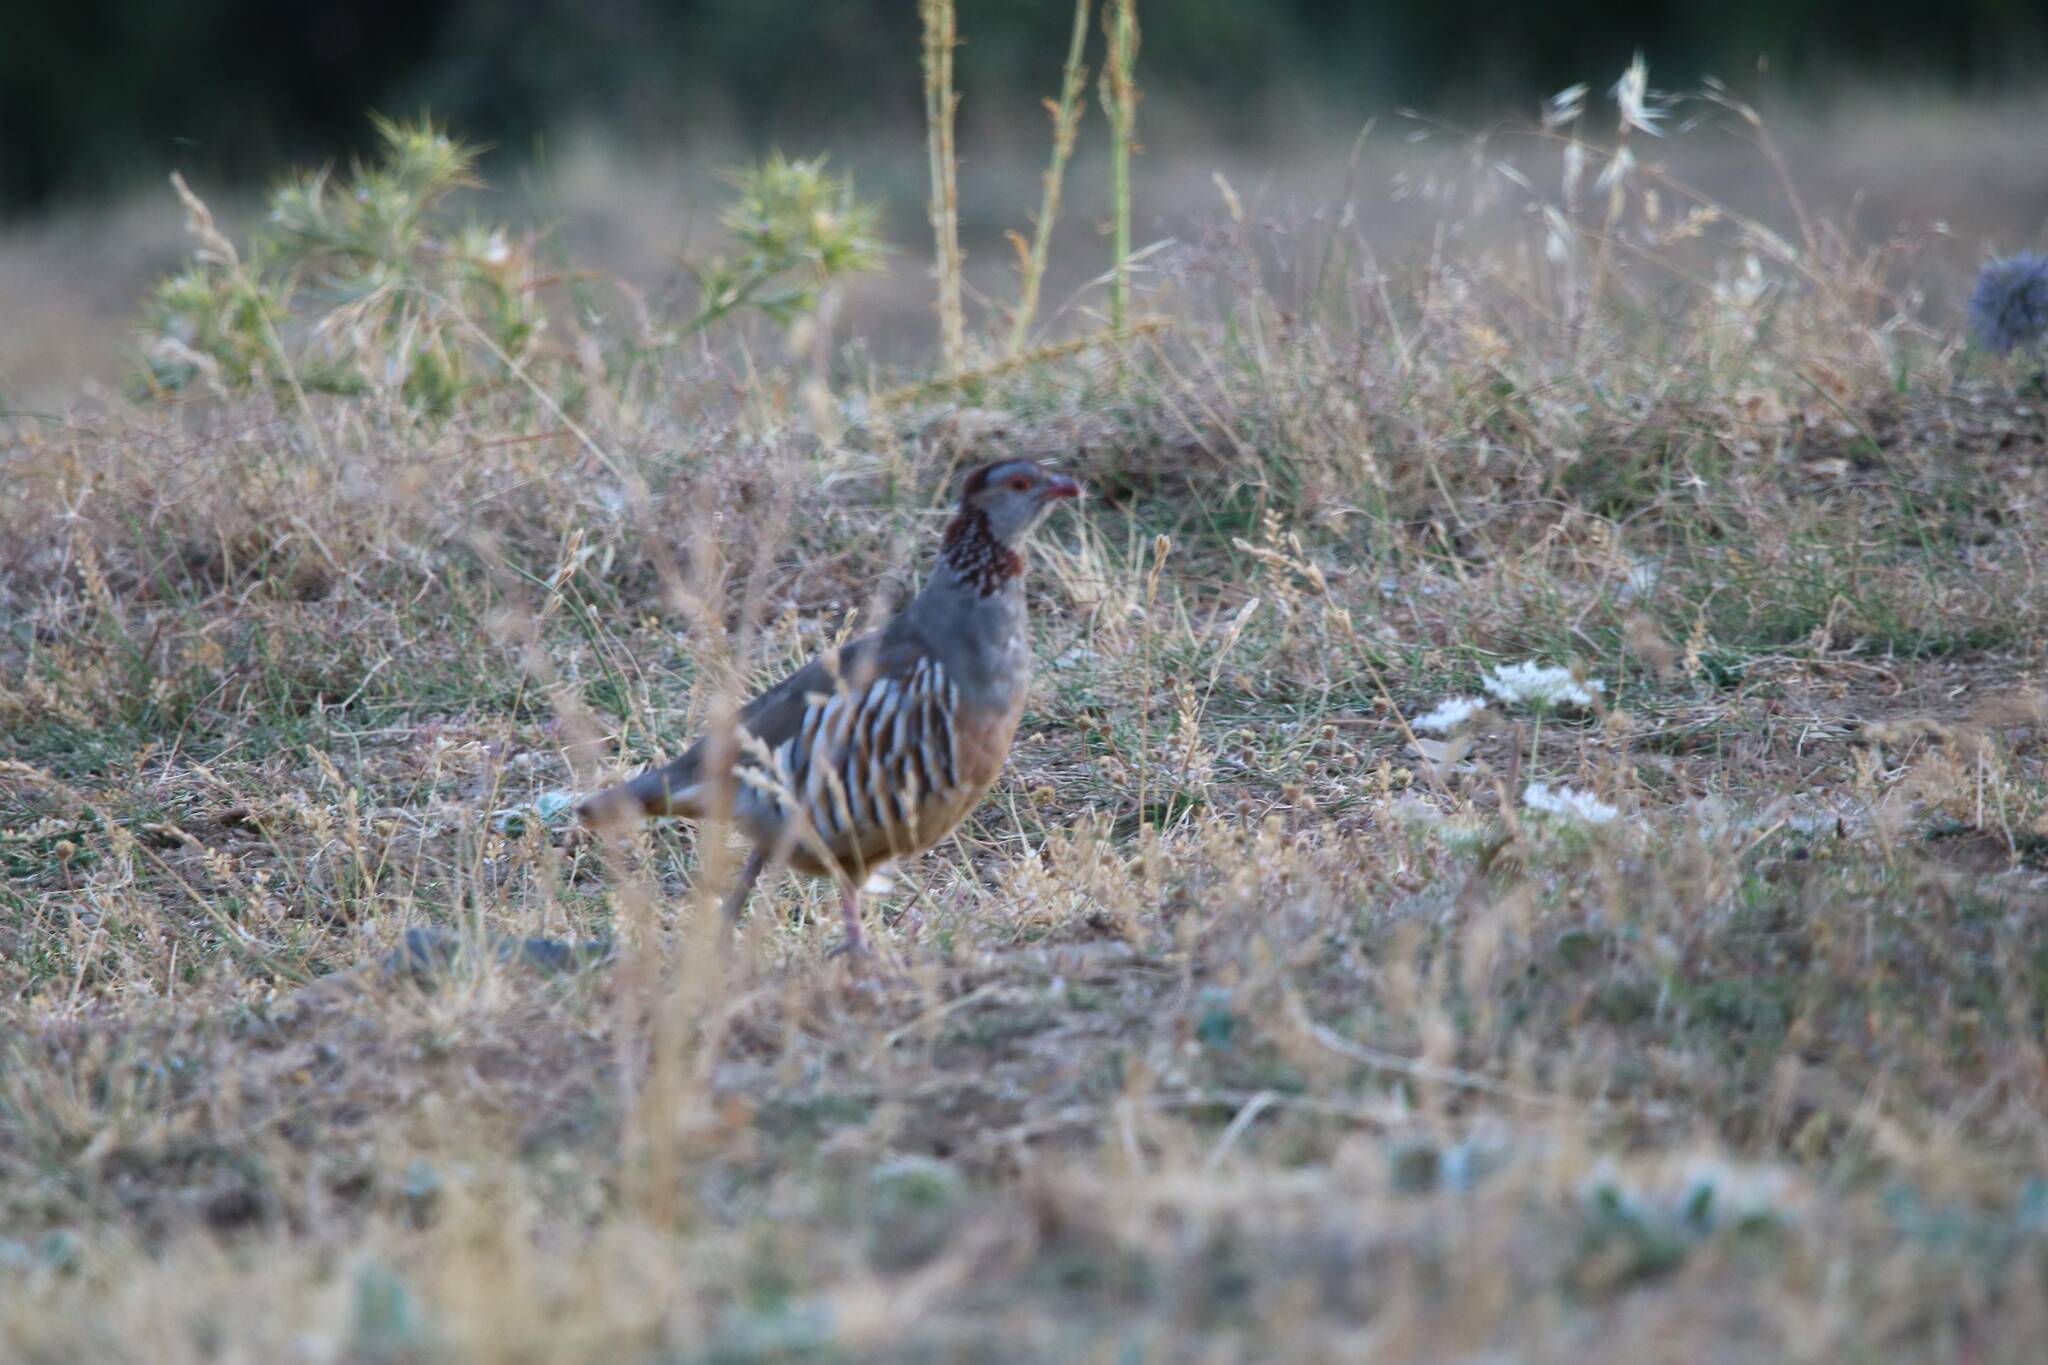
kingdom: Animalia
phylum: Chordata
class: Aves
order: Galliformes
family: Phasianidae
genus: Alectoris
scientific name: Alectoris barbara
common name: Barbary partridge
